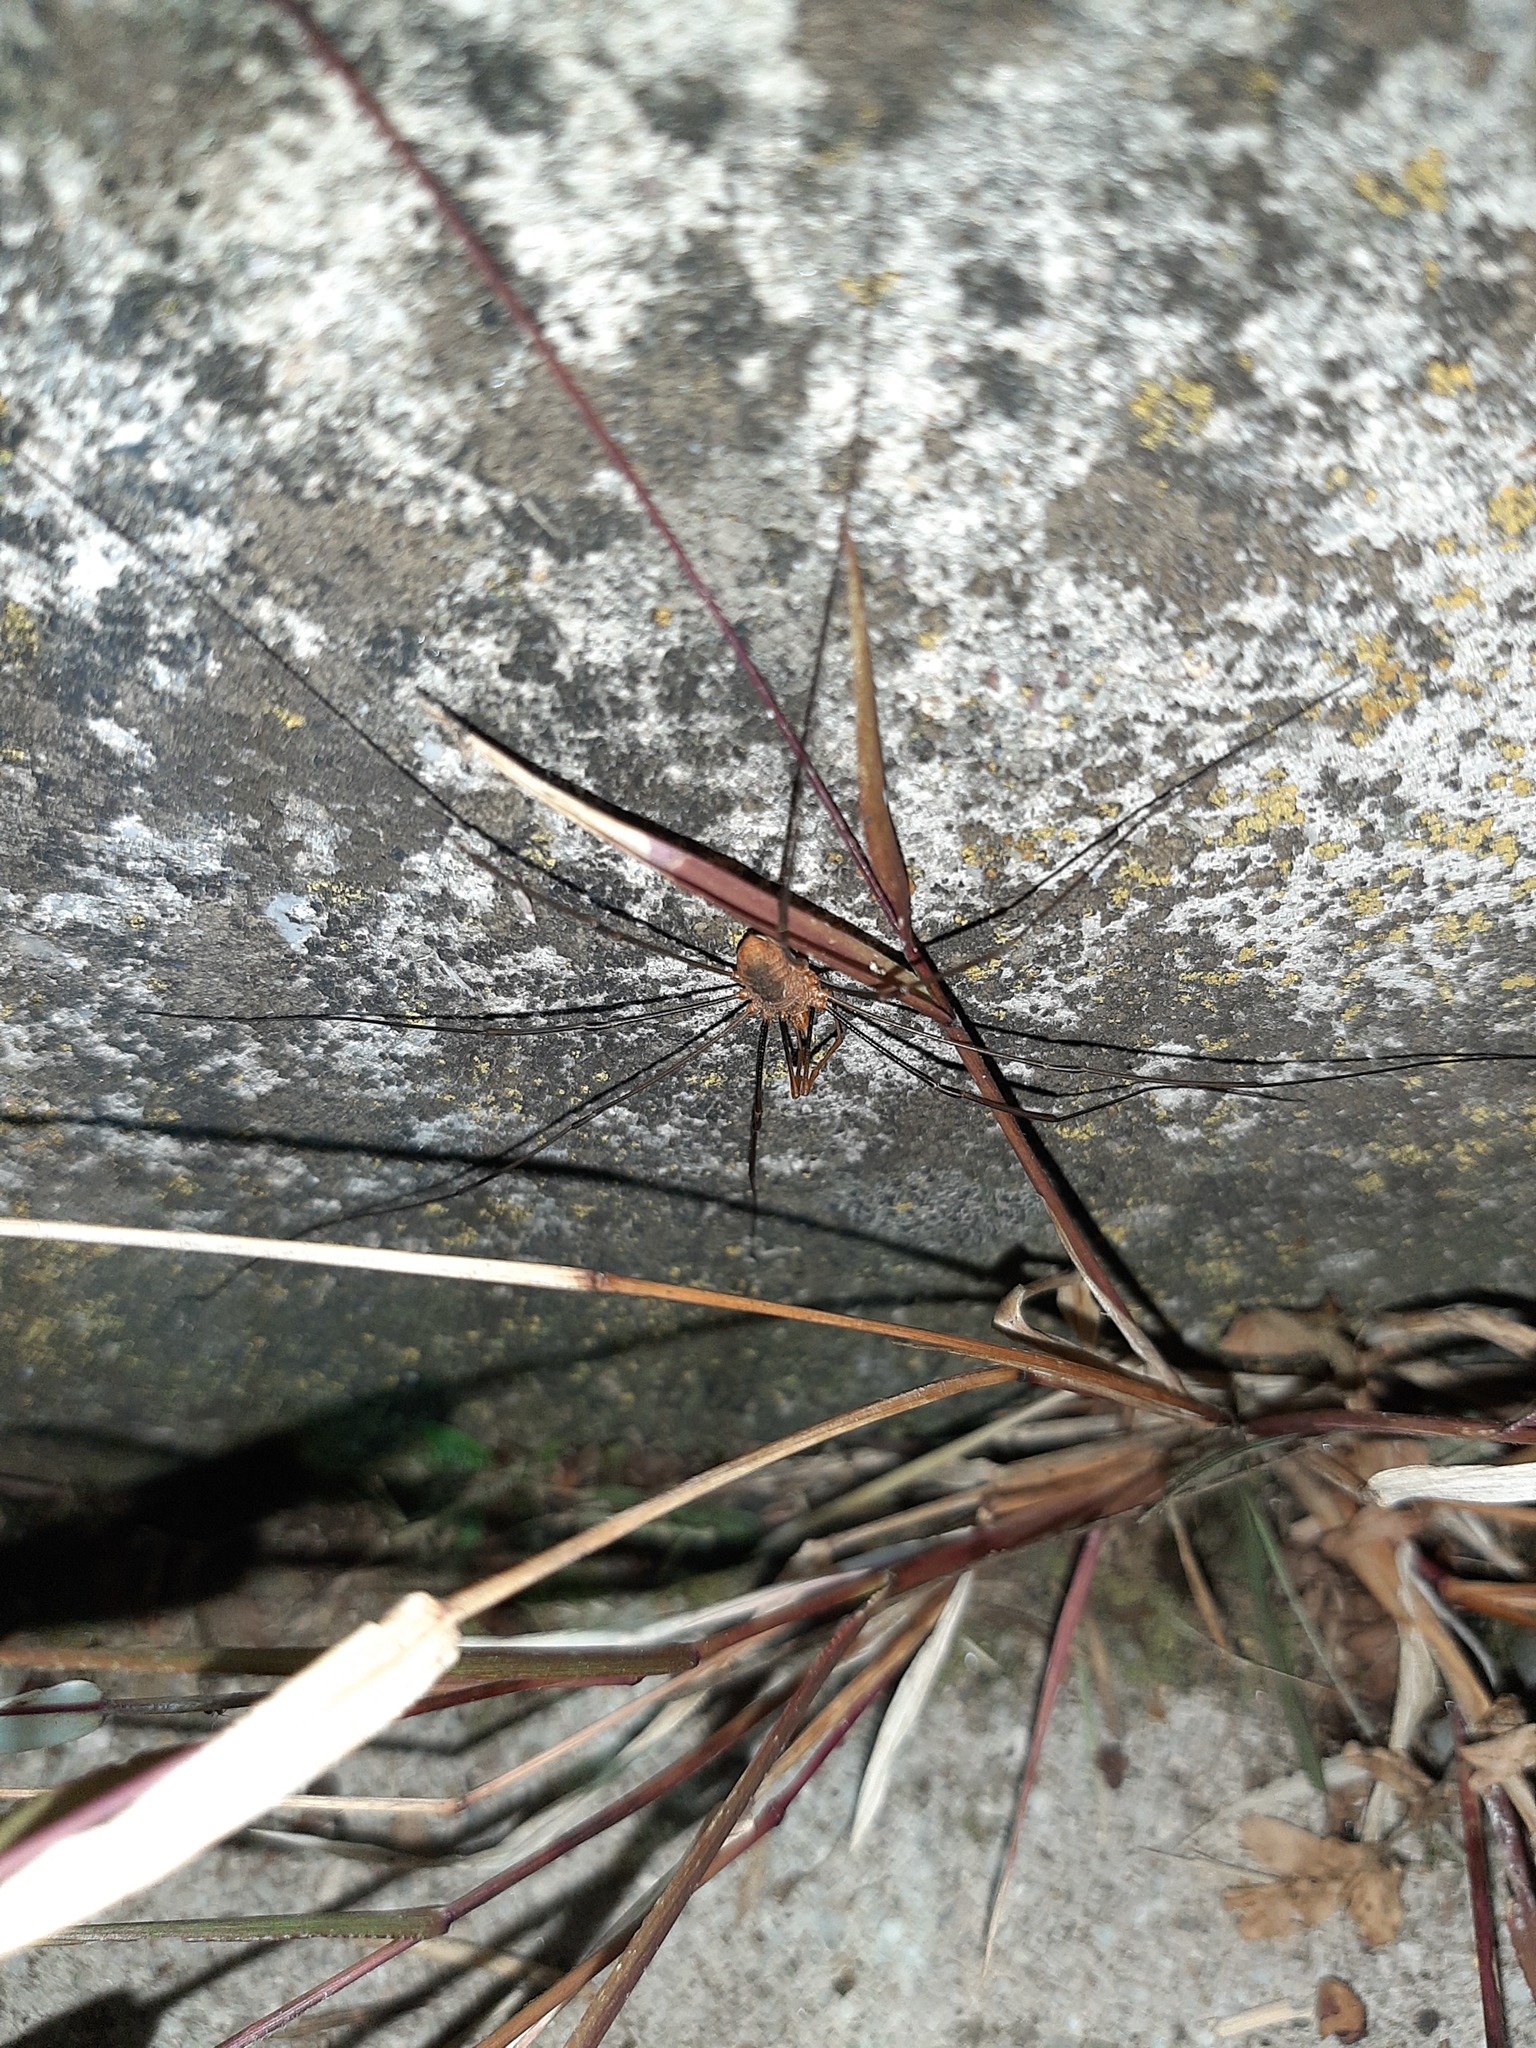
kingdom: Animalia
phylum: Arthropoda
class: Arachnida
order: Opiliones
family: Phalangiidae
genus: Phalangium
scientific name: Phalangium opilio
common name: Daddy longleg
